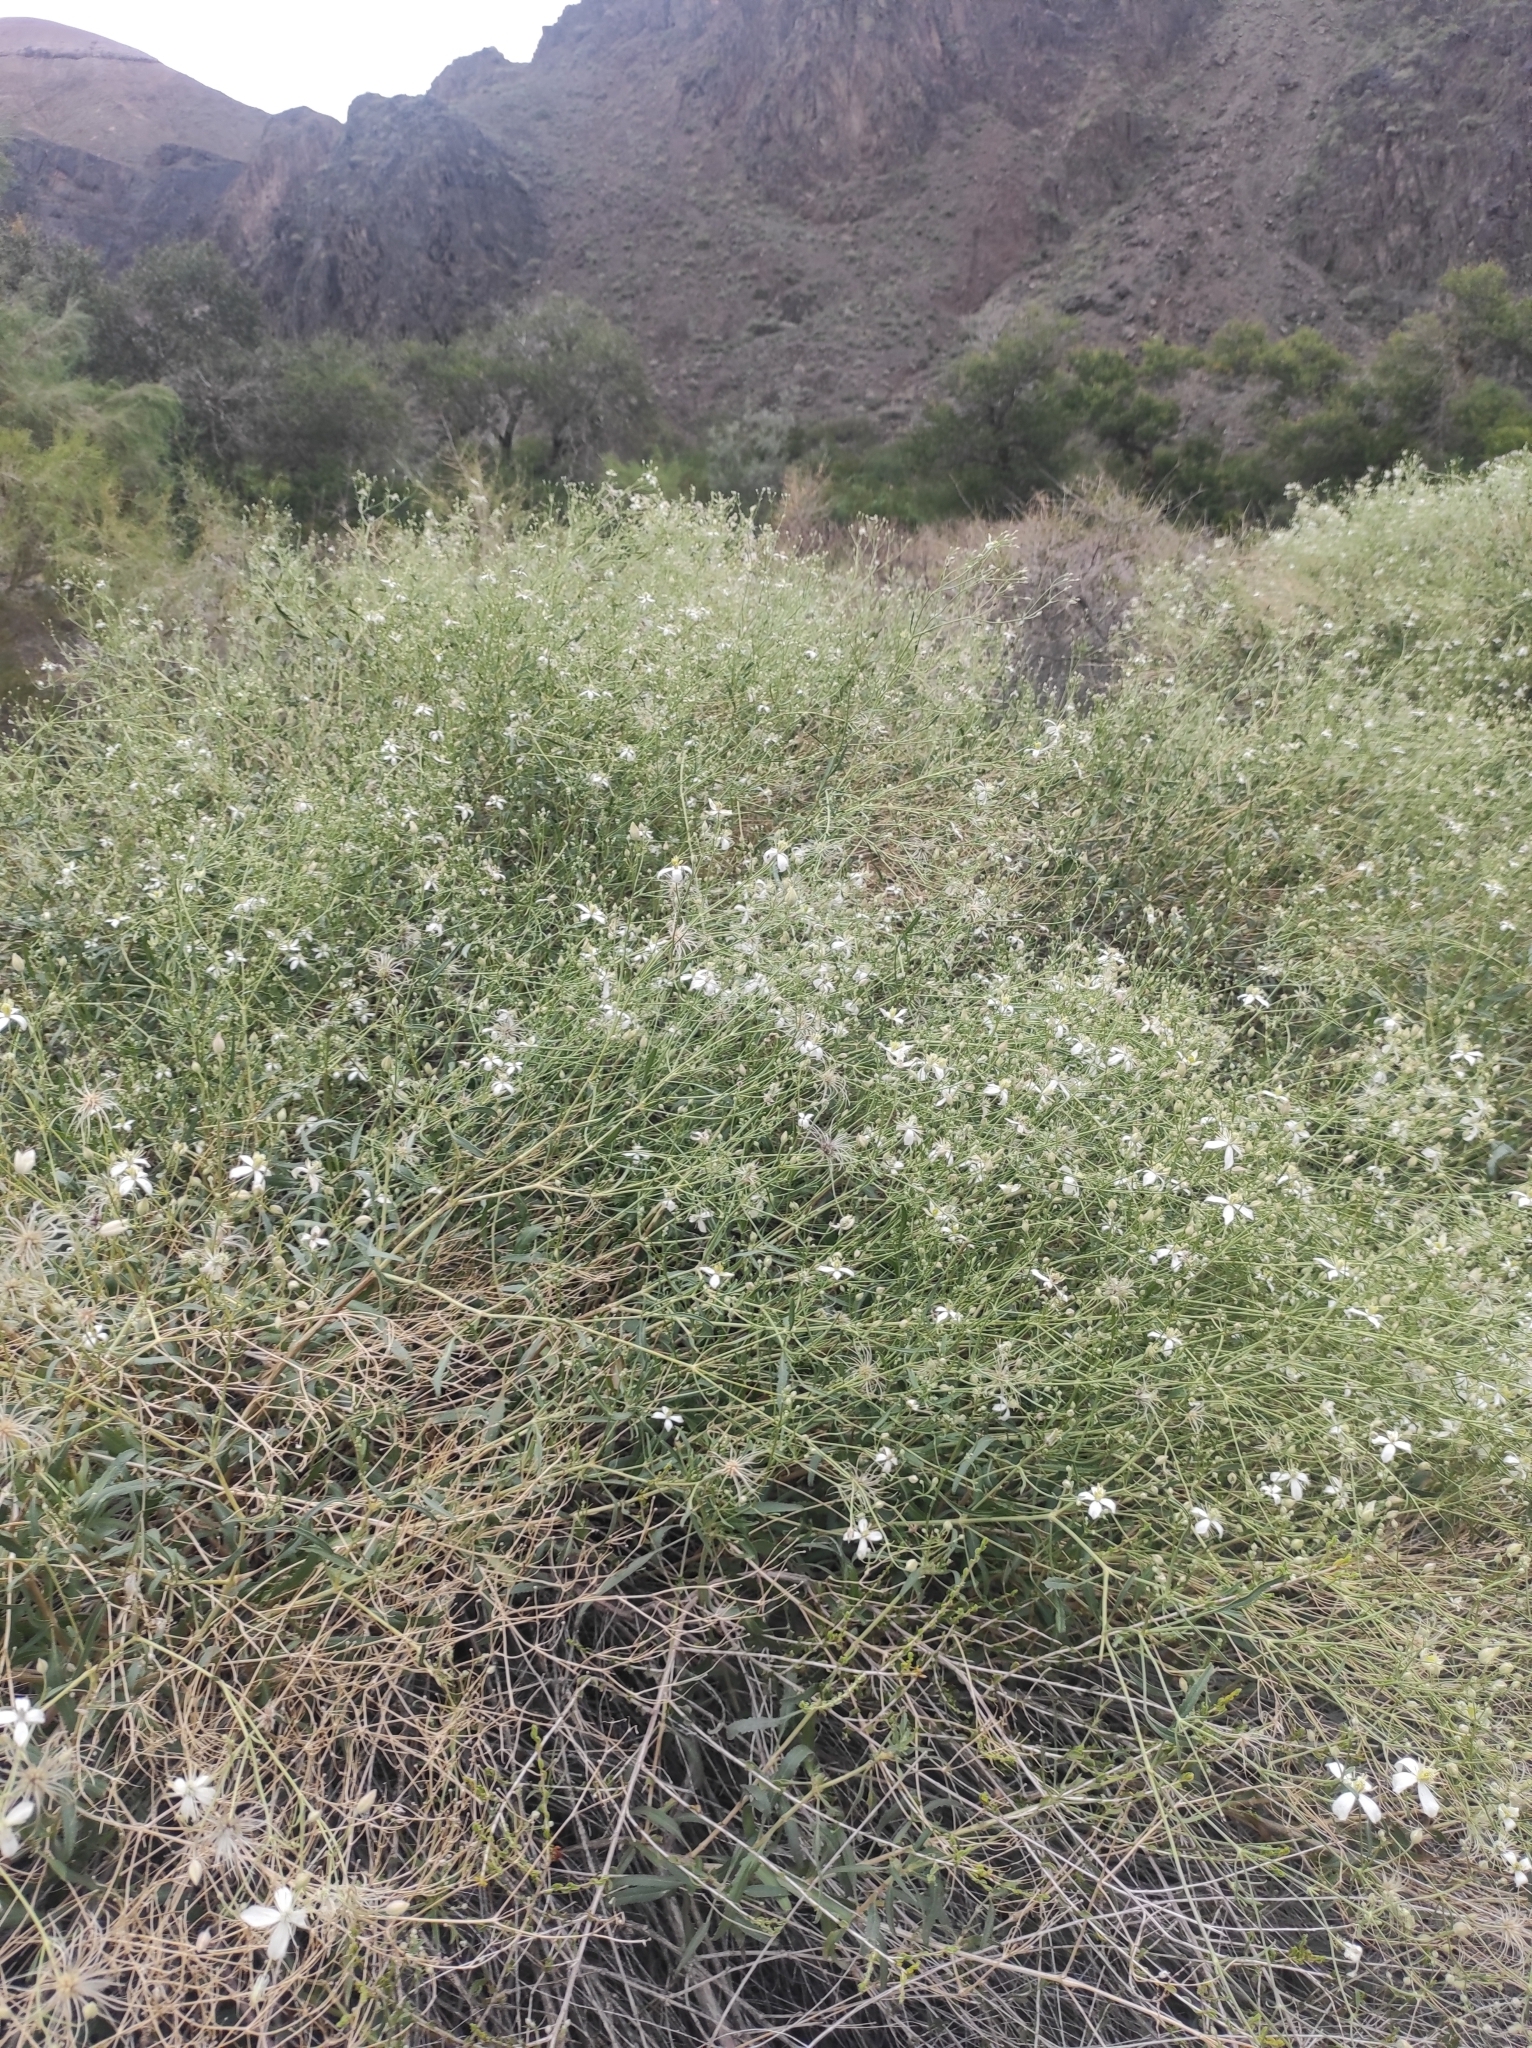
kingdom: Plantae
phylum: Tracheophyta
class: Magnoliopsida
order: Ranunculales
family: Ranunculaceae
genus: Clematis
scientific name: Clematis songorica
